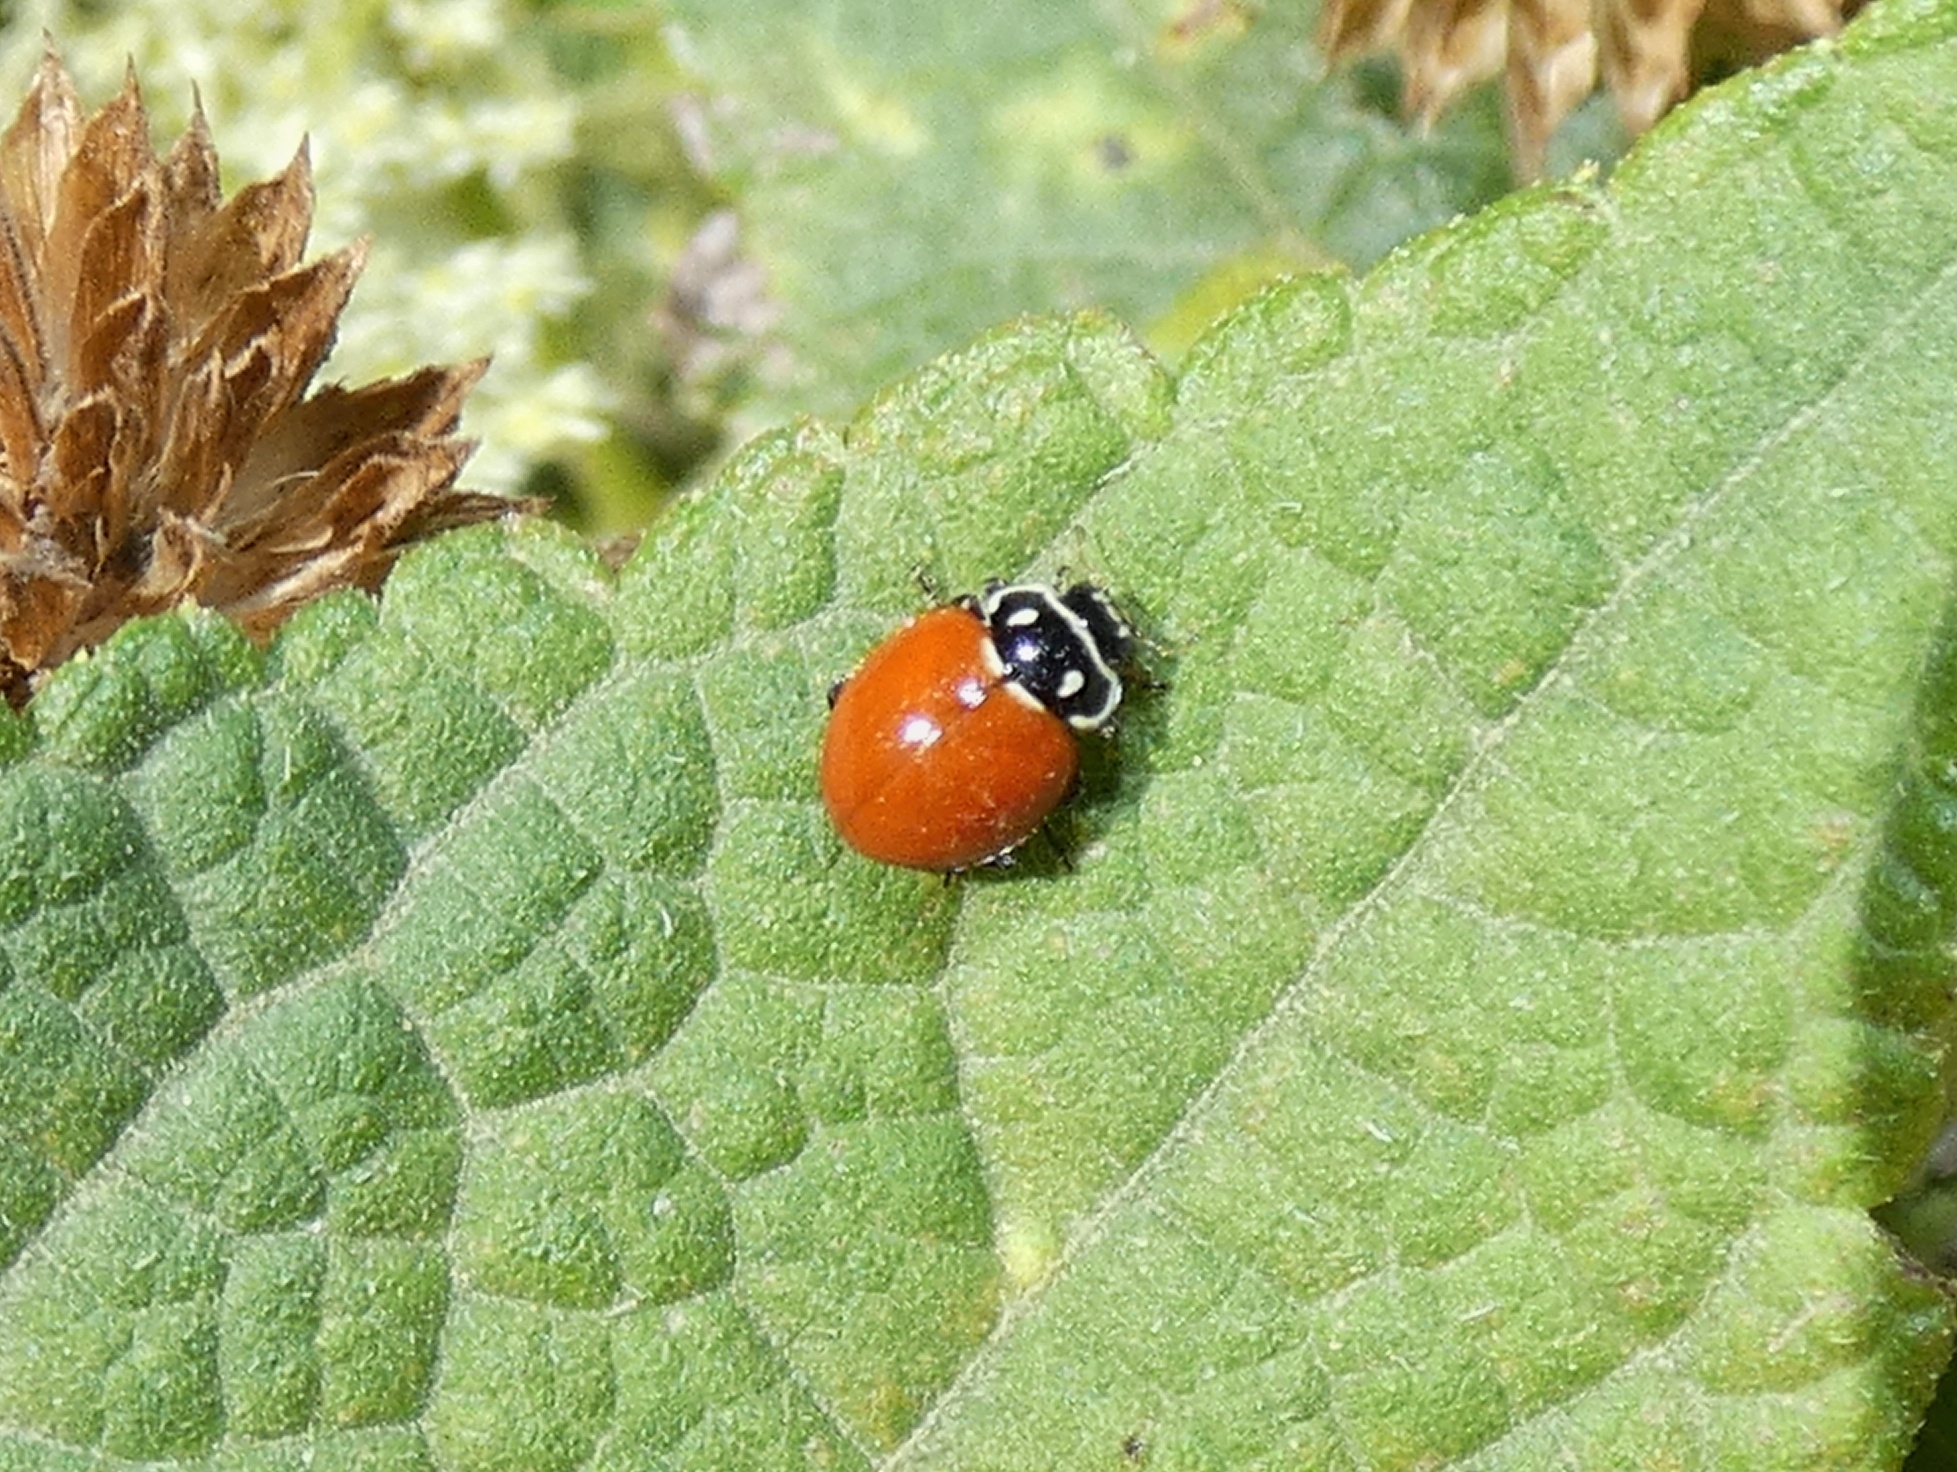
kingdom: Animalia
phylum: Arthropoda
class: Insecta
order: Coleoptera
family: Coccinellidae
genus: Cycloneda
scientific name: Cycloneda emarginata
